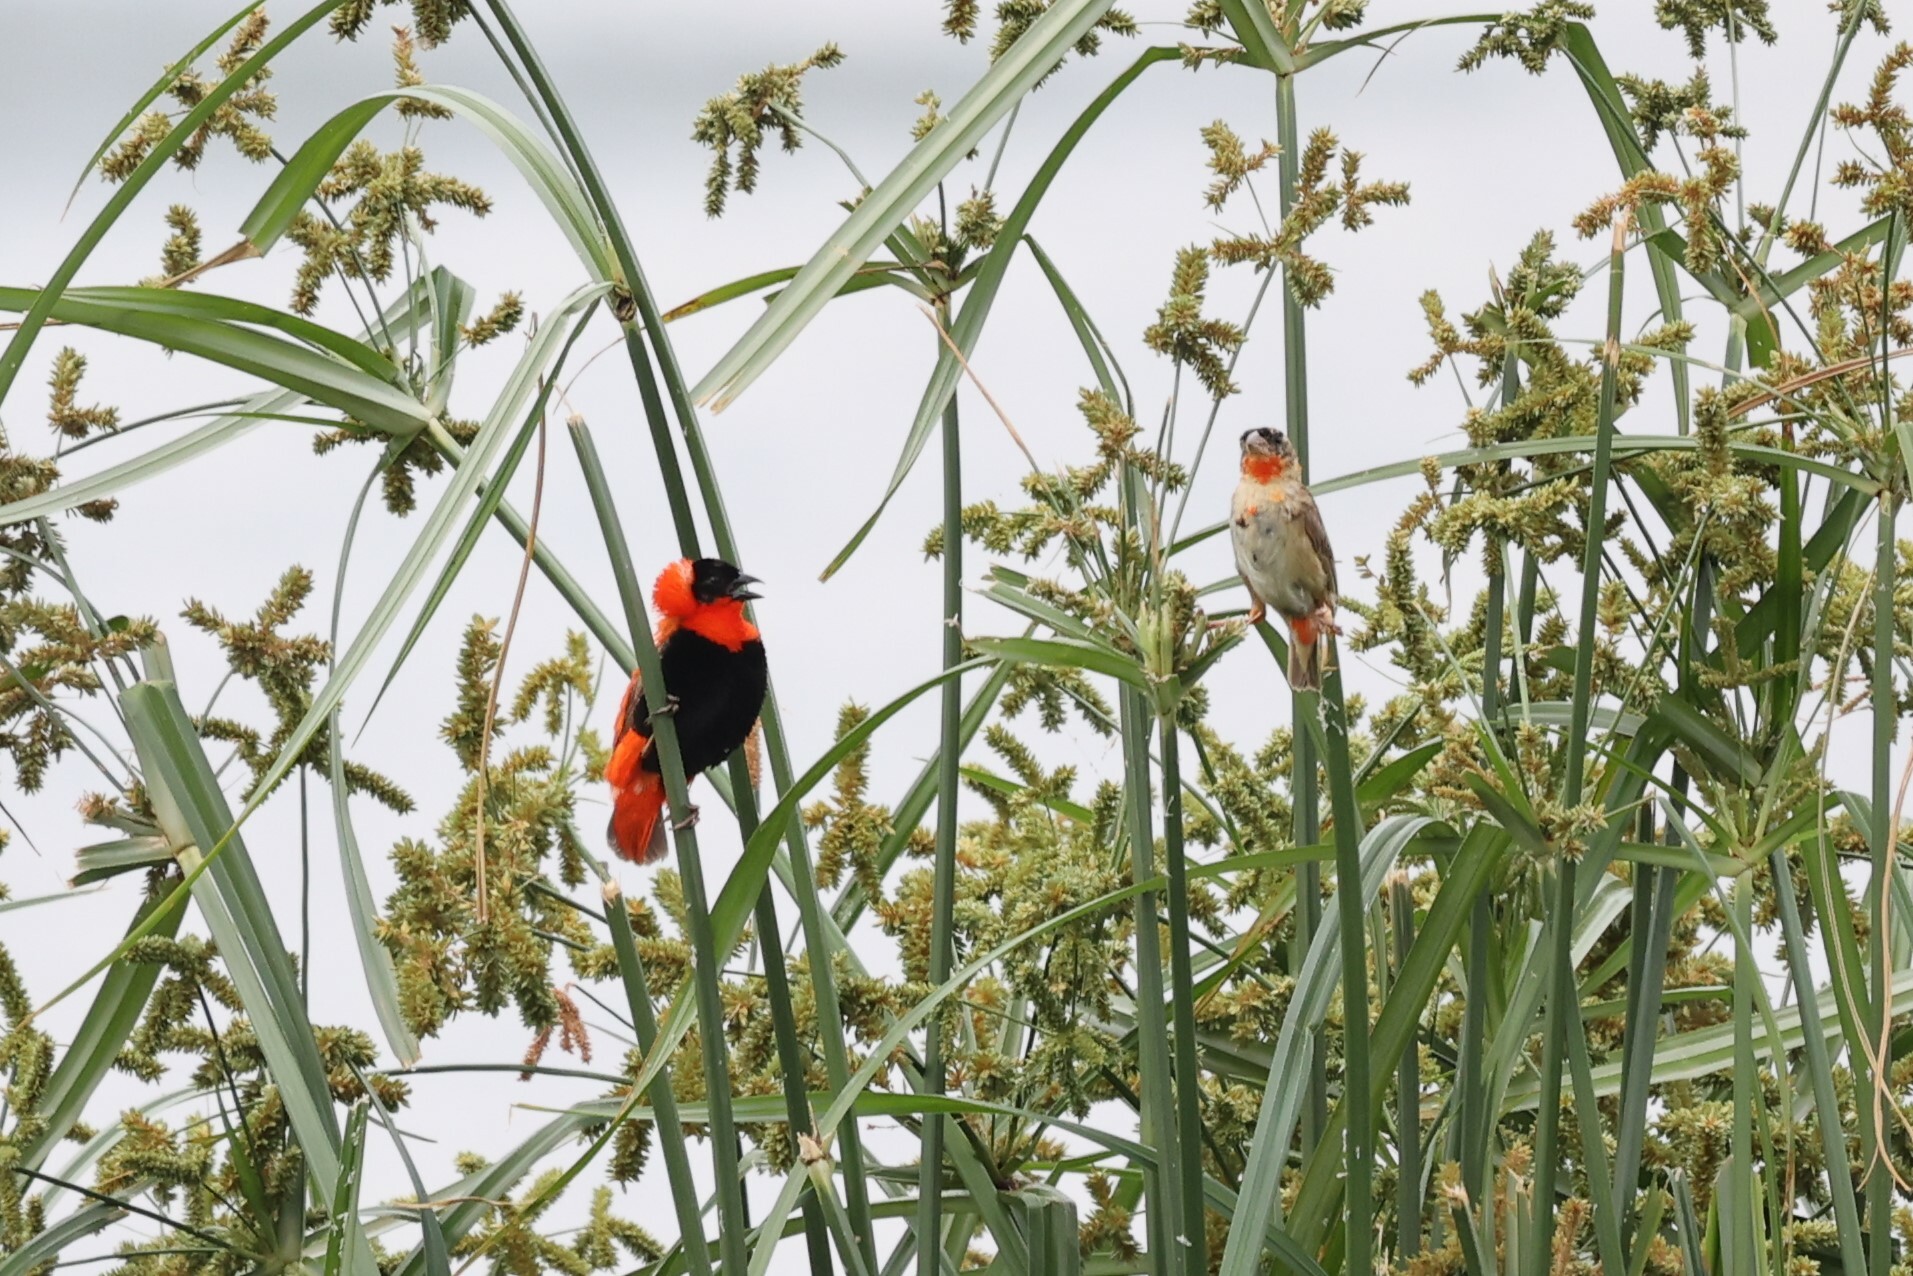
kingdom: Animalia
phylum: Chordata
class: Aves
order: Passeriformes
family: Ploceidae
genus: Euplectes
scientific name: Euplectes franciscanus
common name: Northern red bishop
